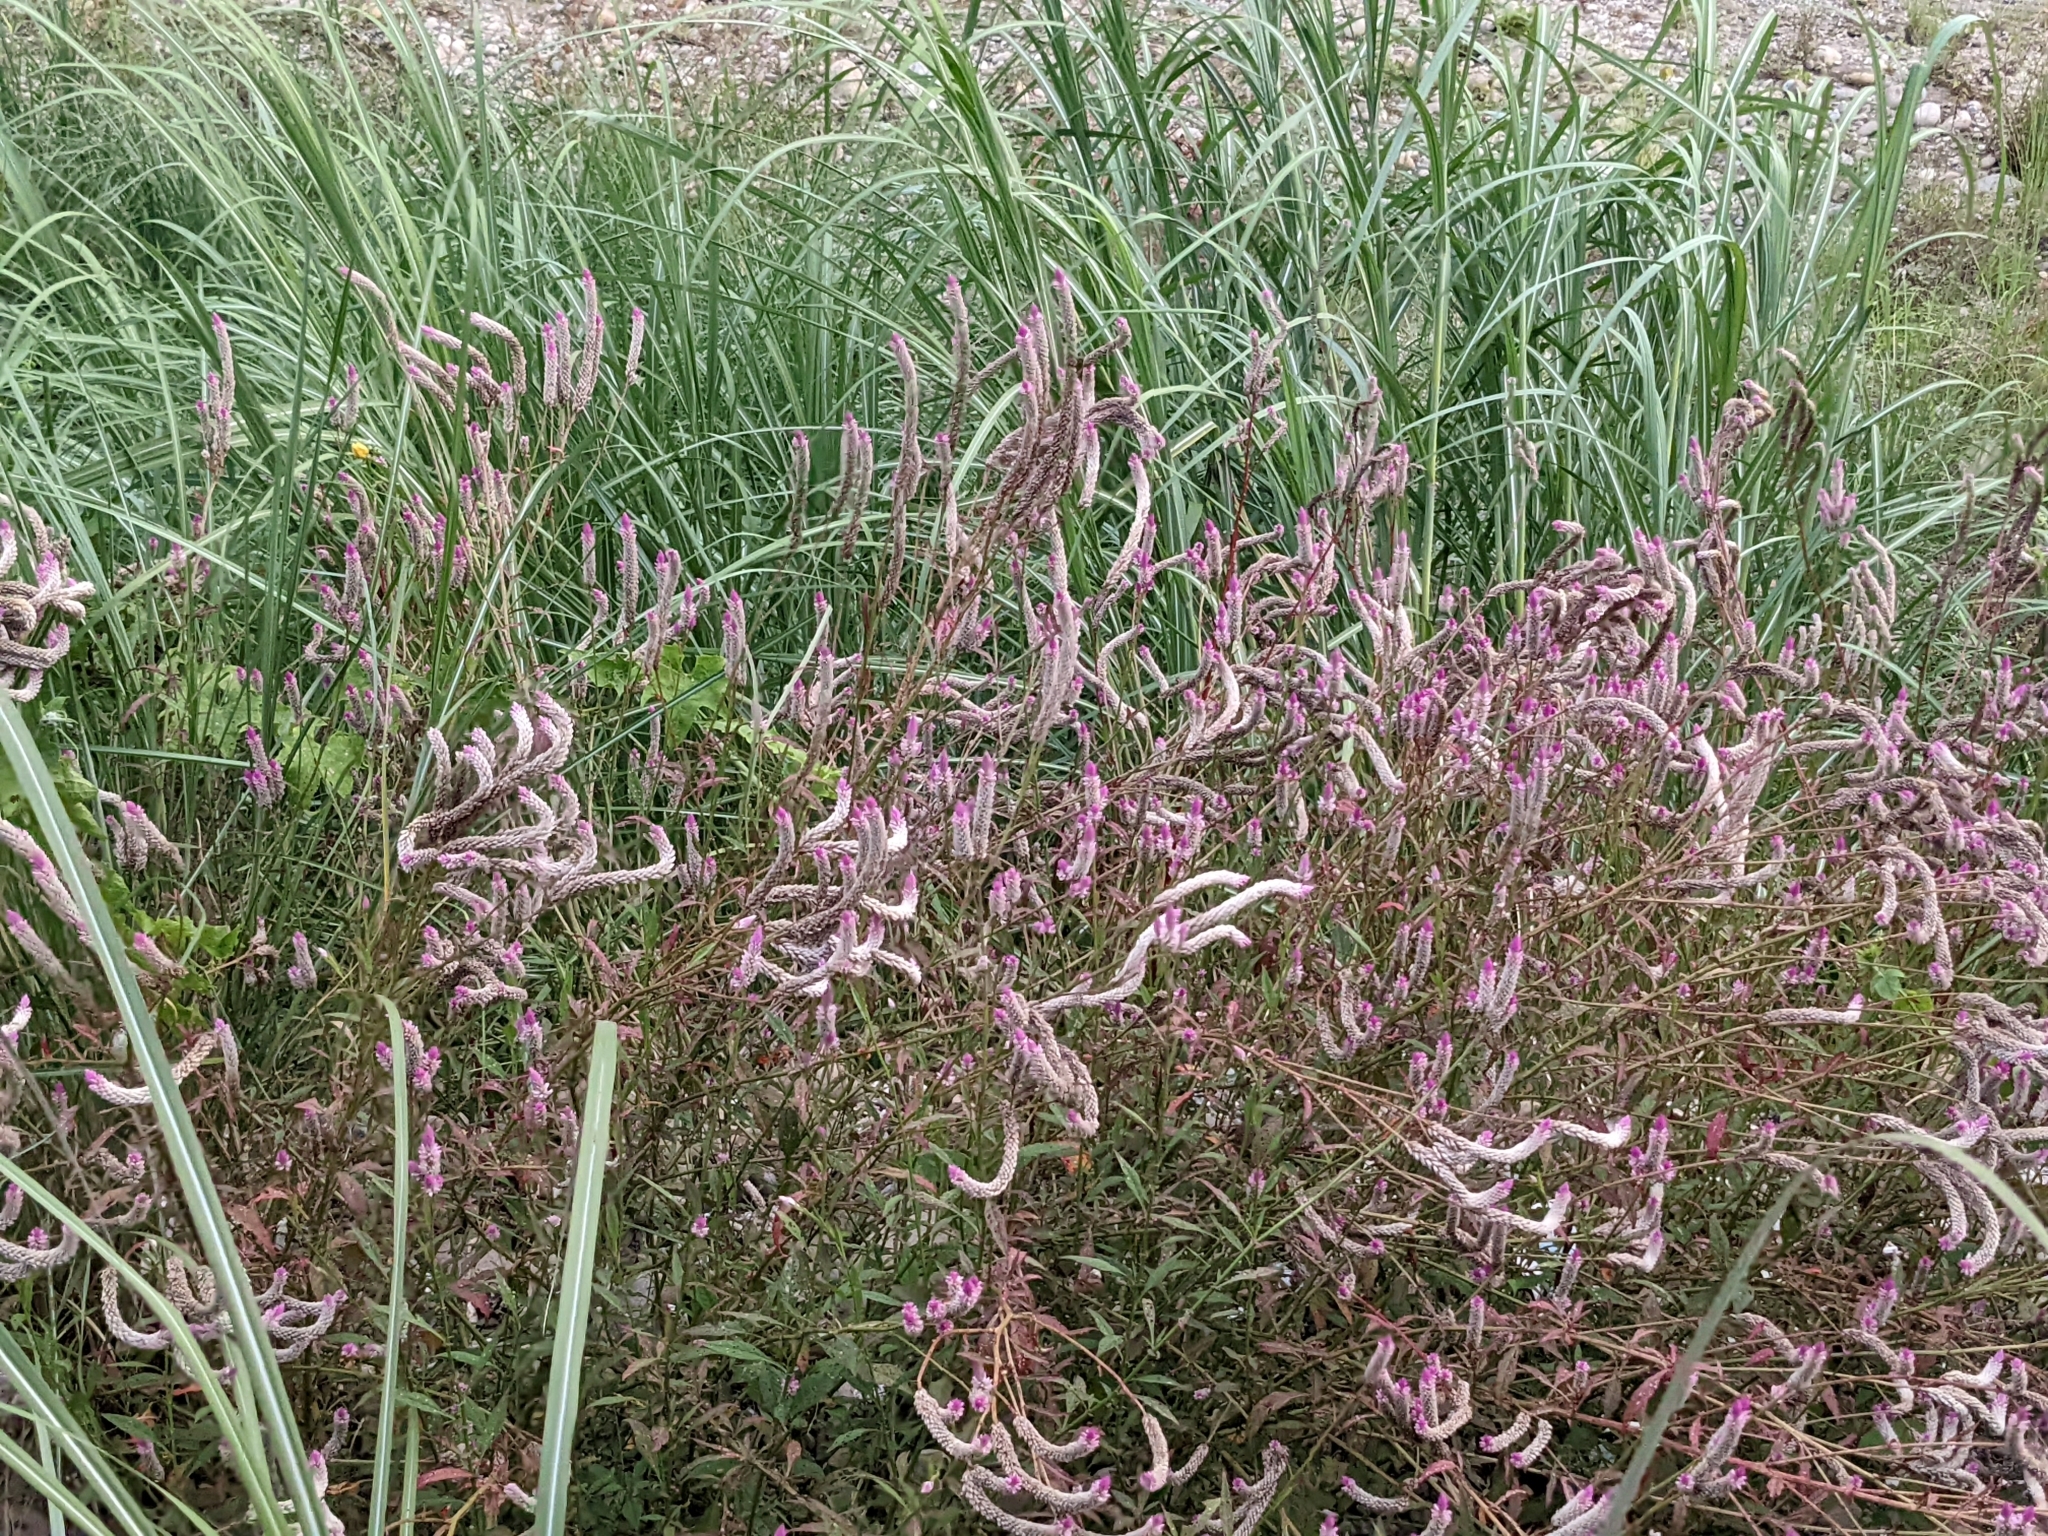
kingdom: Plantae
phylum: Tracheophyta
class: Magnoliopsida
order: Caryophyllales
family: Amaranthaceae
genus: Celosia
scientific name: Celosia argentea
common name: Feather cockscomb
